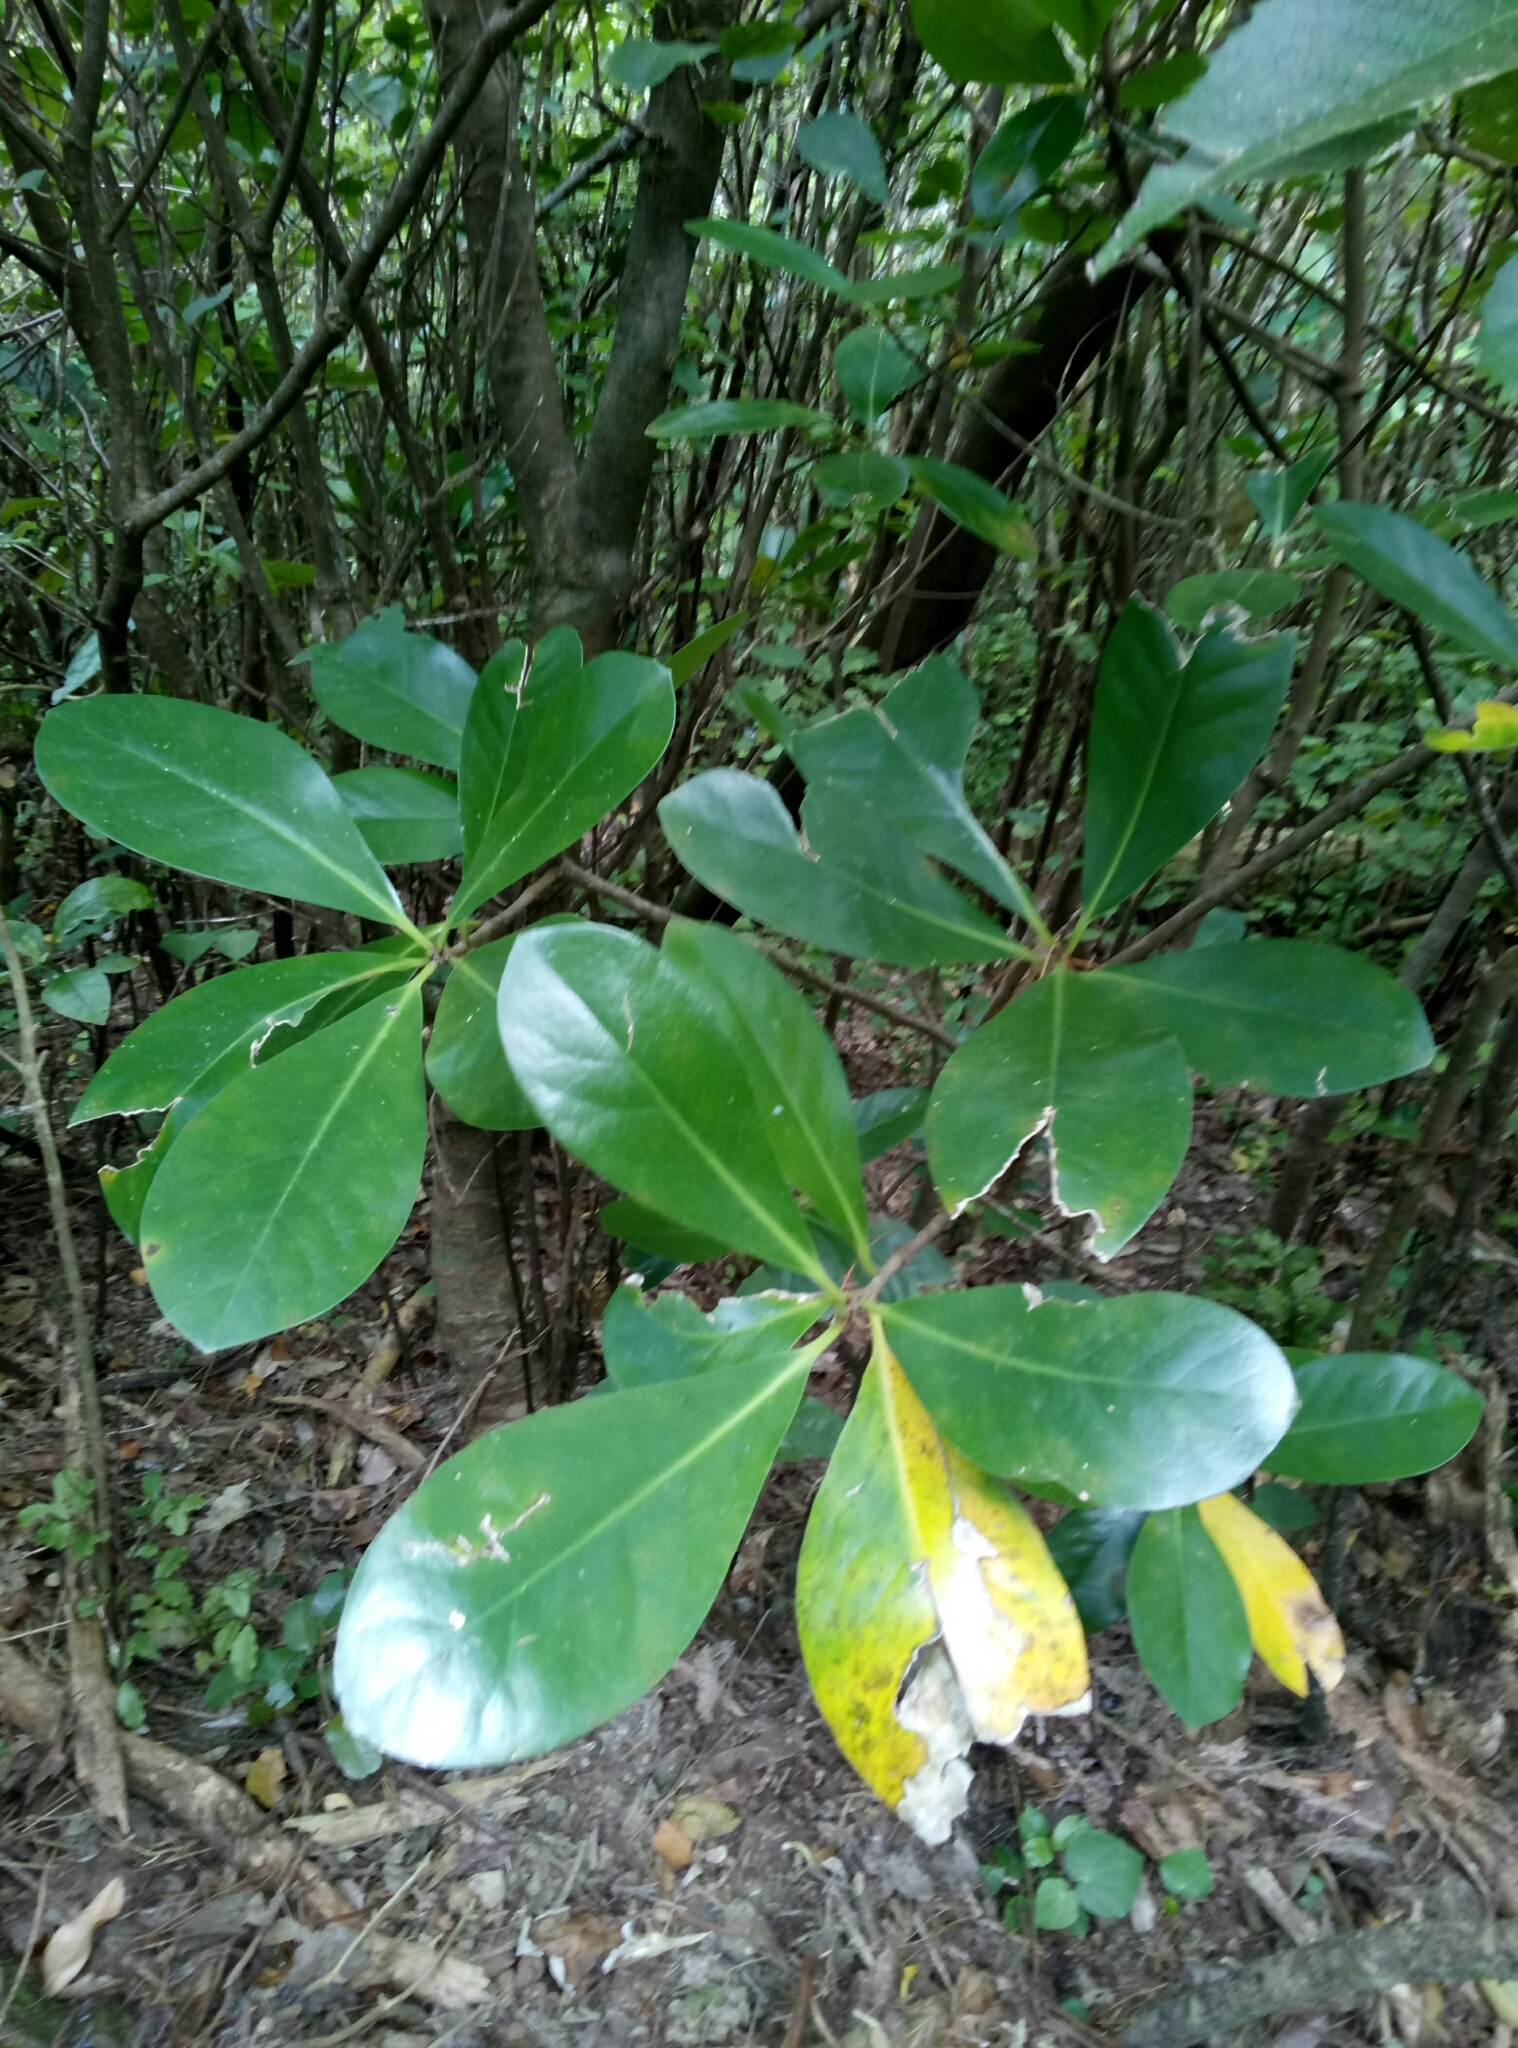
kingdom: Plantae
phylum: Tracheophyta
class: Magnoliopsida
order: Cucurbitales
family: Corynocarpaceae
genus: Corynocarpus
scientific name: Corynocarpus laevigatus
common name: New zealand laurel
